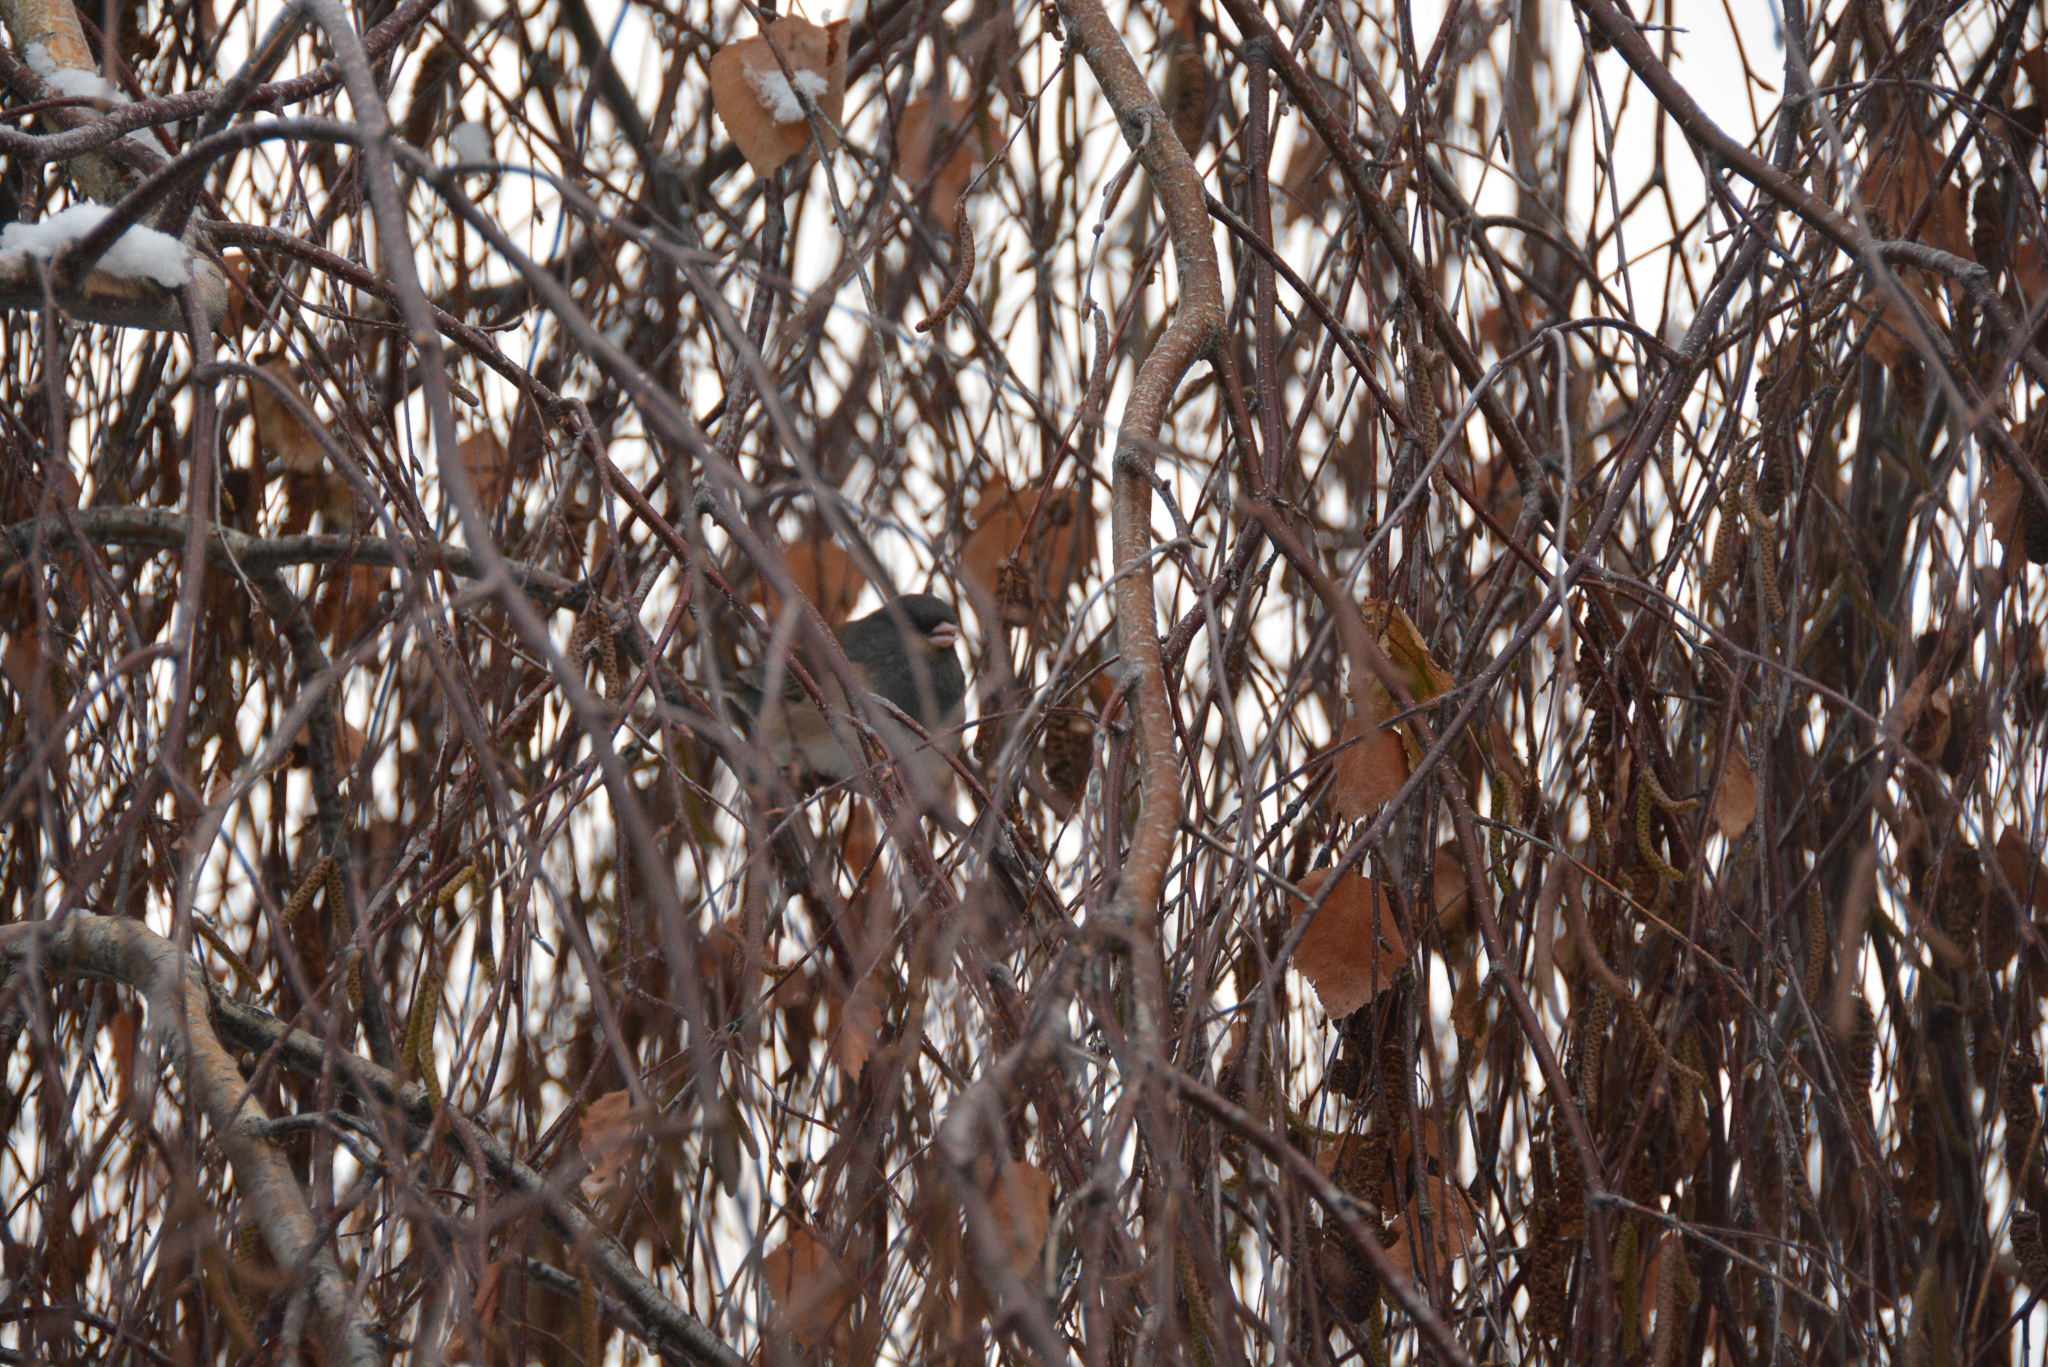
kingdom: Animalia
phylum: Chordata
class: Aves
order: Passeriformes
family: Passerellidae
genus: Junco
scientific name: Junco hyemalis
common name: Dark-eyed junco
